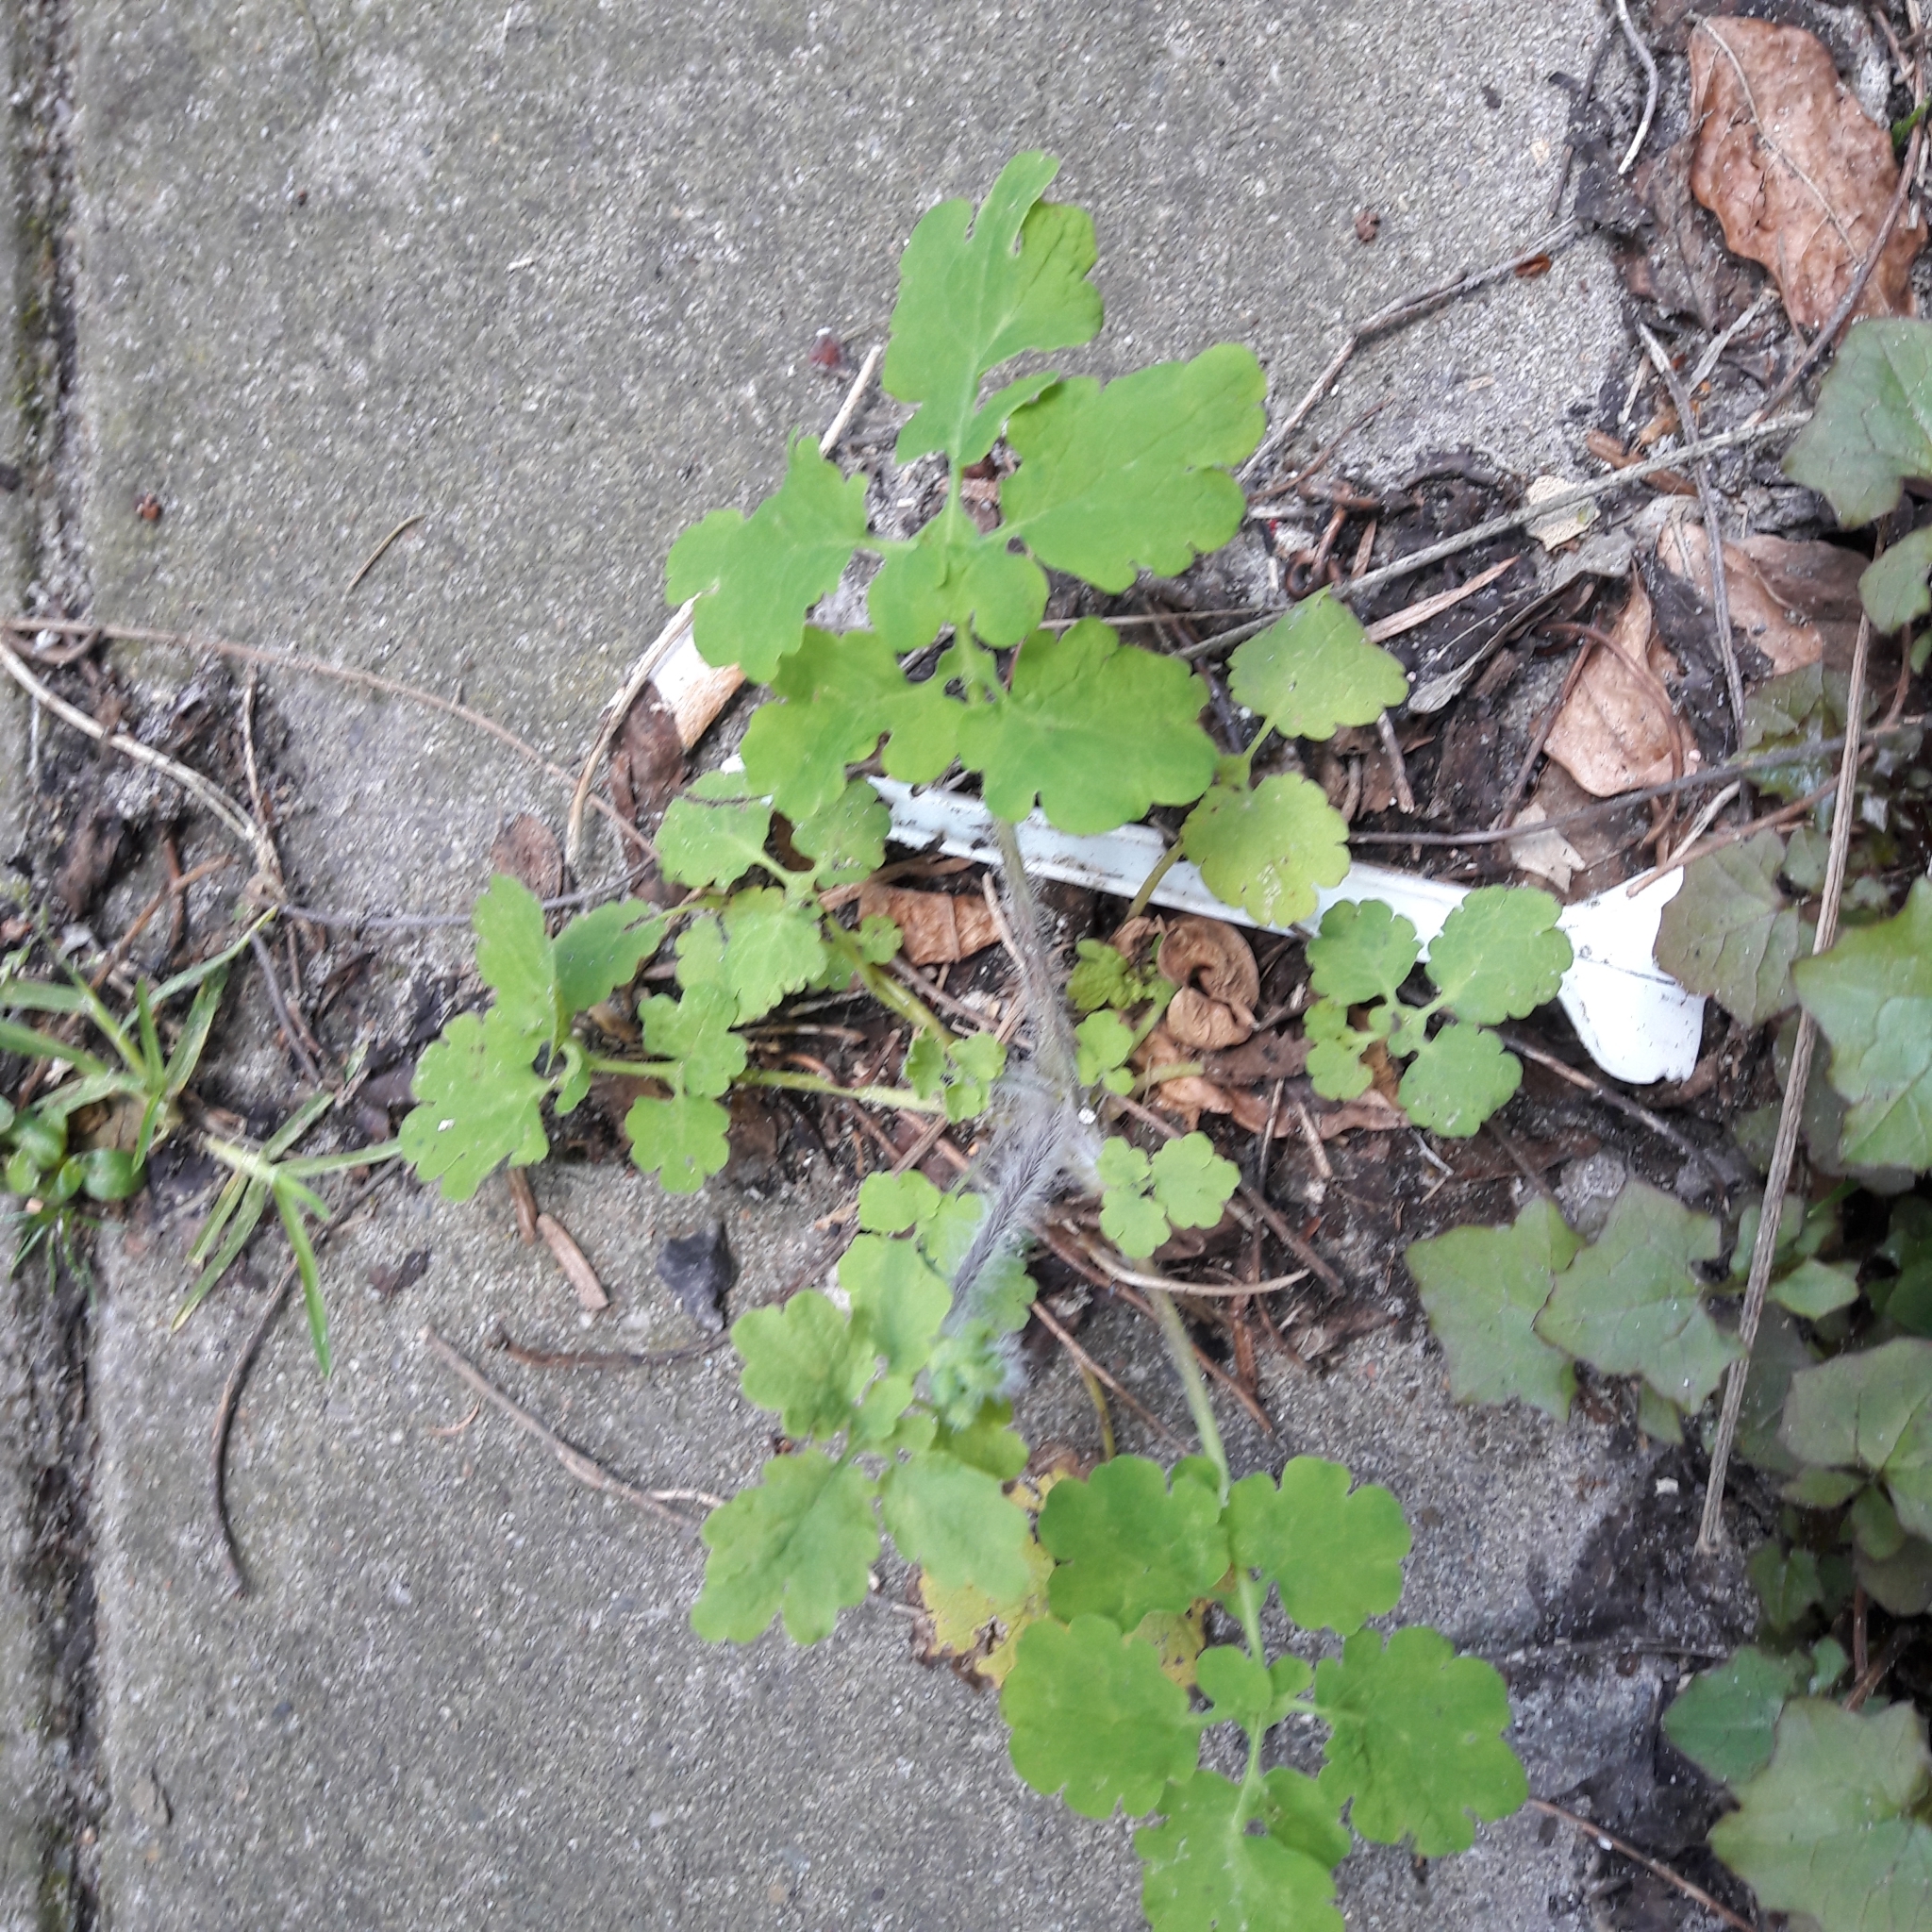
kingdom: Plantae
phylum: Tracheophyta
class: Magnoliopsida
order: Ranunculales
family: Papaveraceae
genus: Chelidonium
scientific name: Chelidonium majus
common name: Greater celandine
